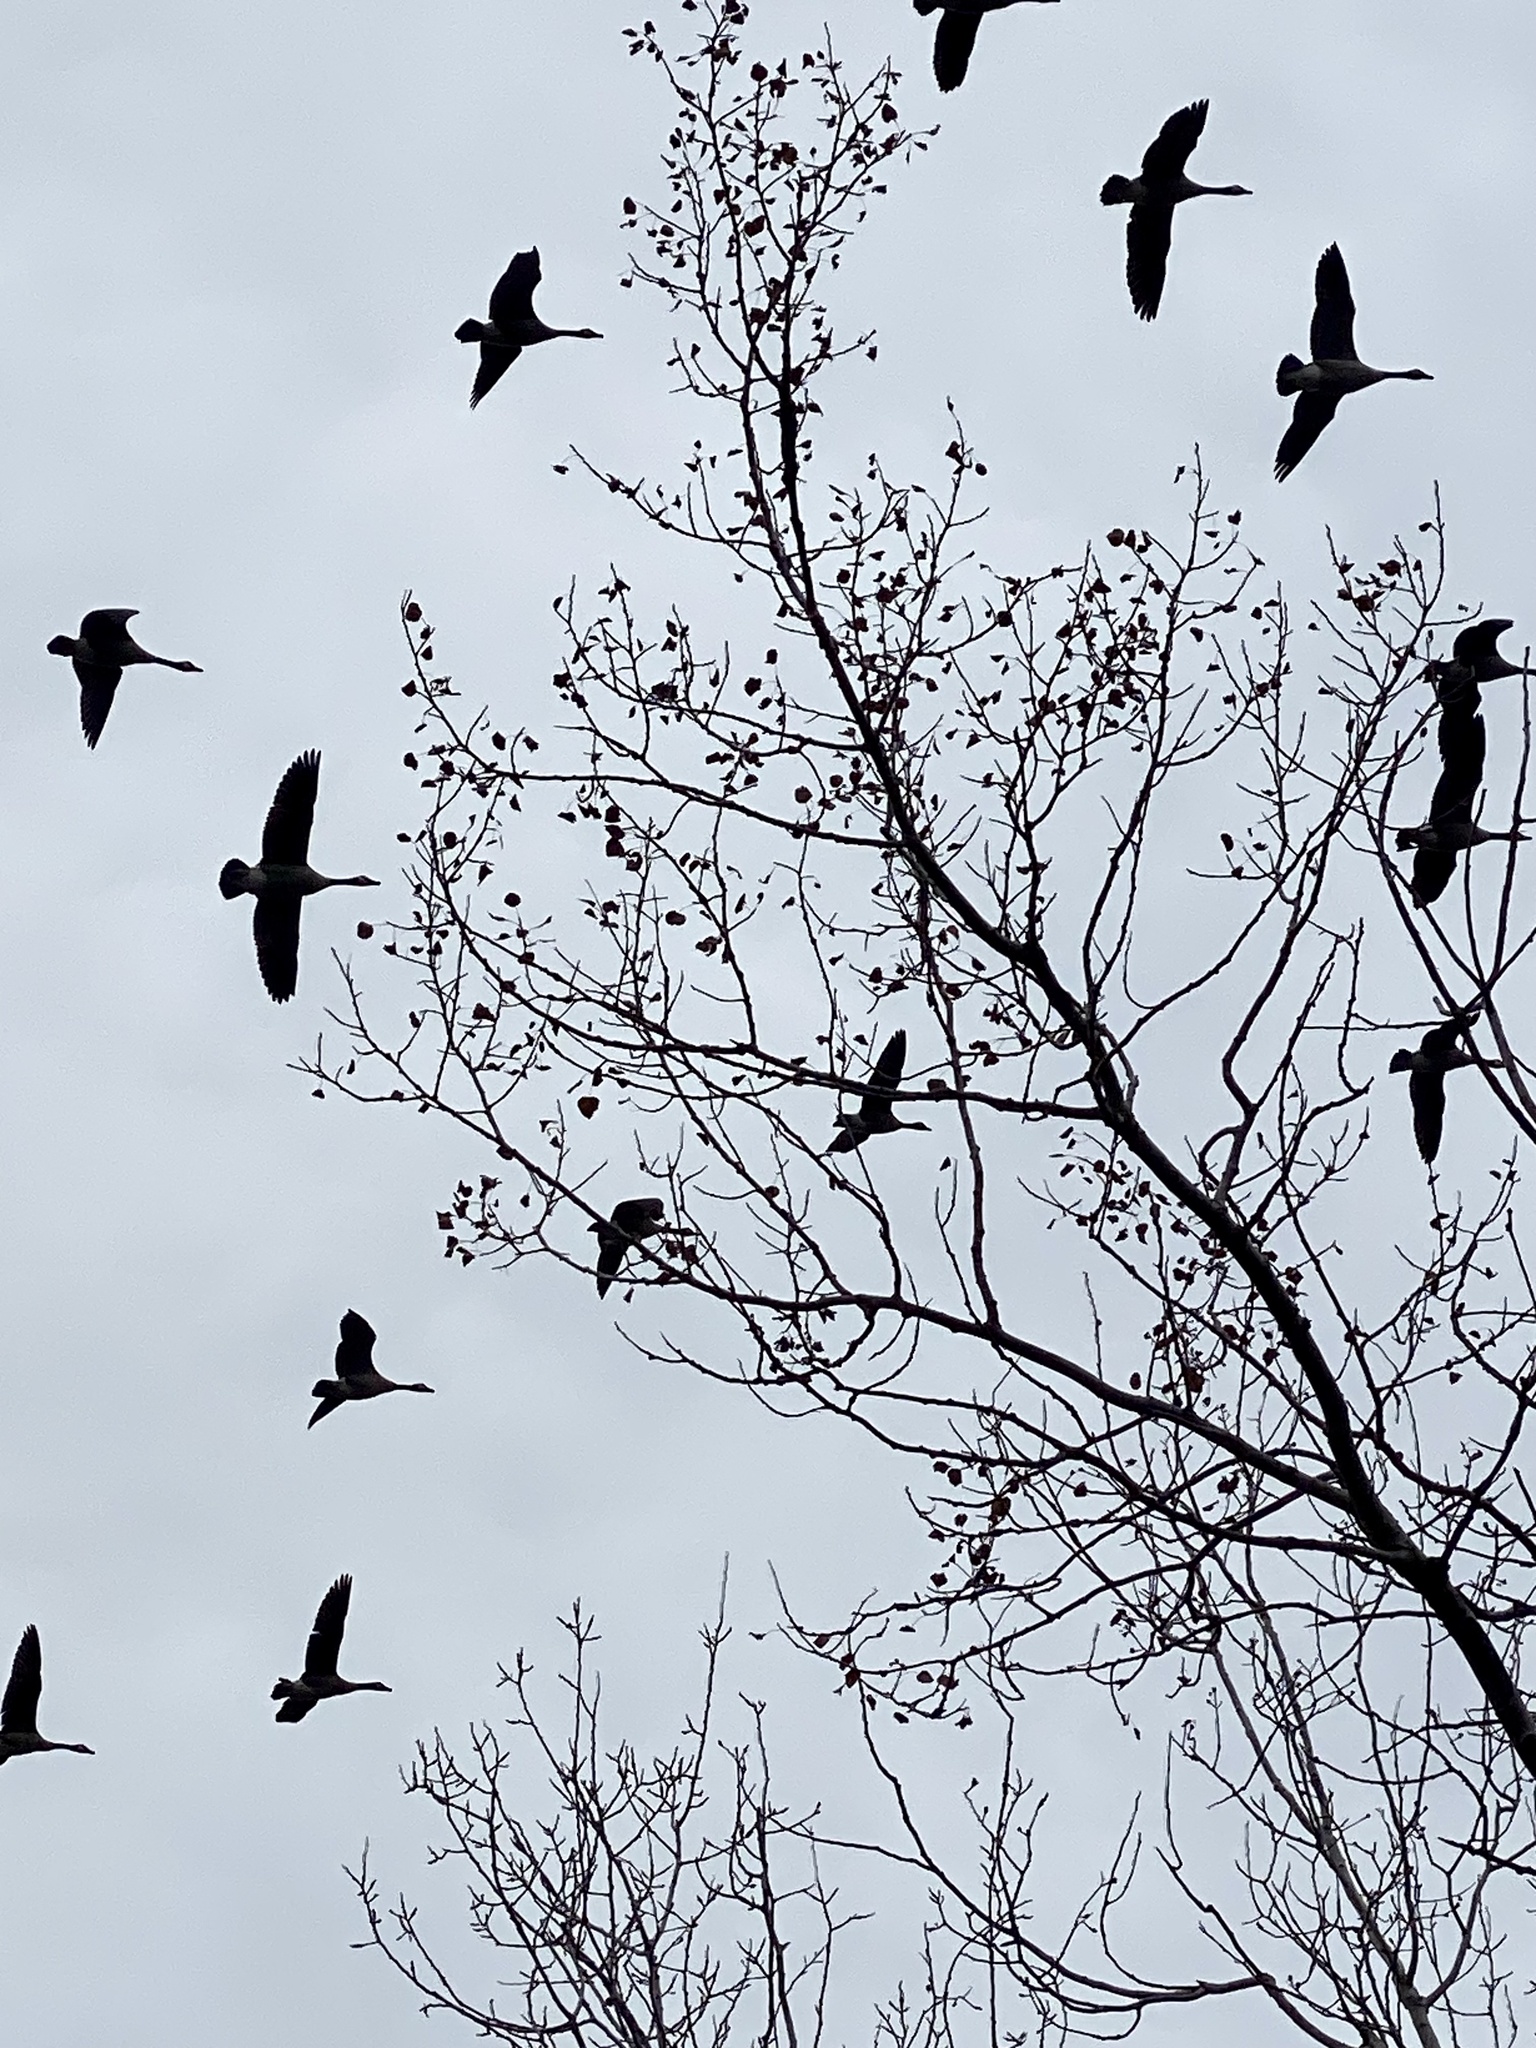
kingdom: Animalia
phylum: Chordata
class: Aves
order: Anseriformes
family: Anatidae
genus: Branta
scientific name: Branta canadensis
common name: Canada goose
